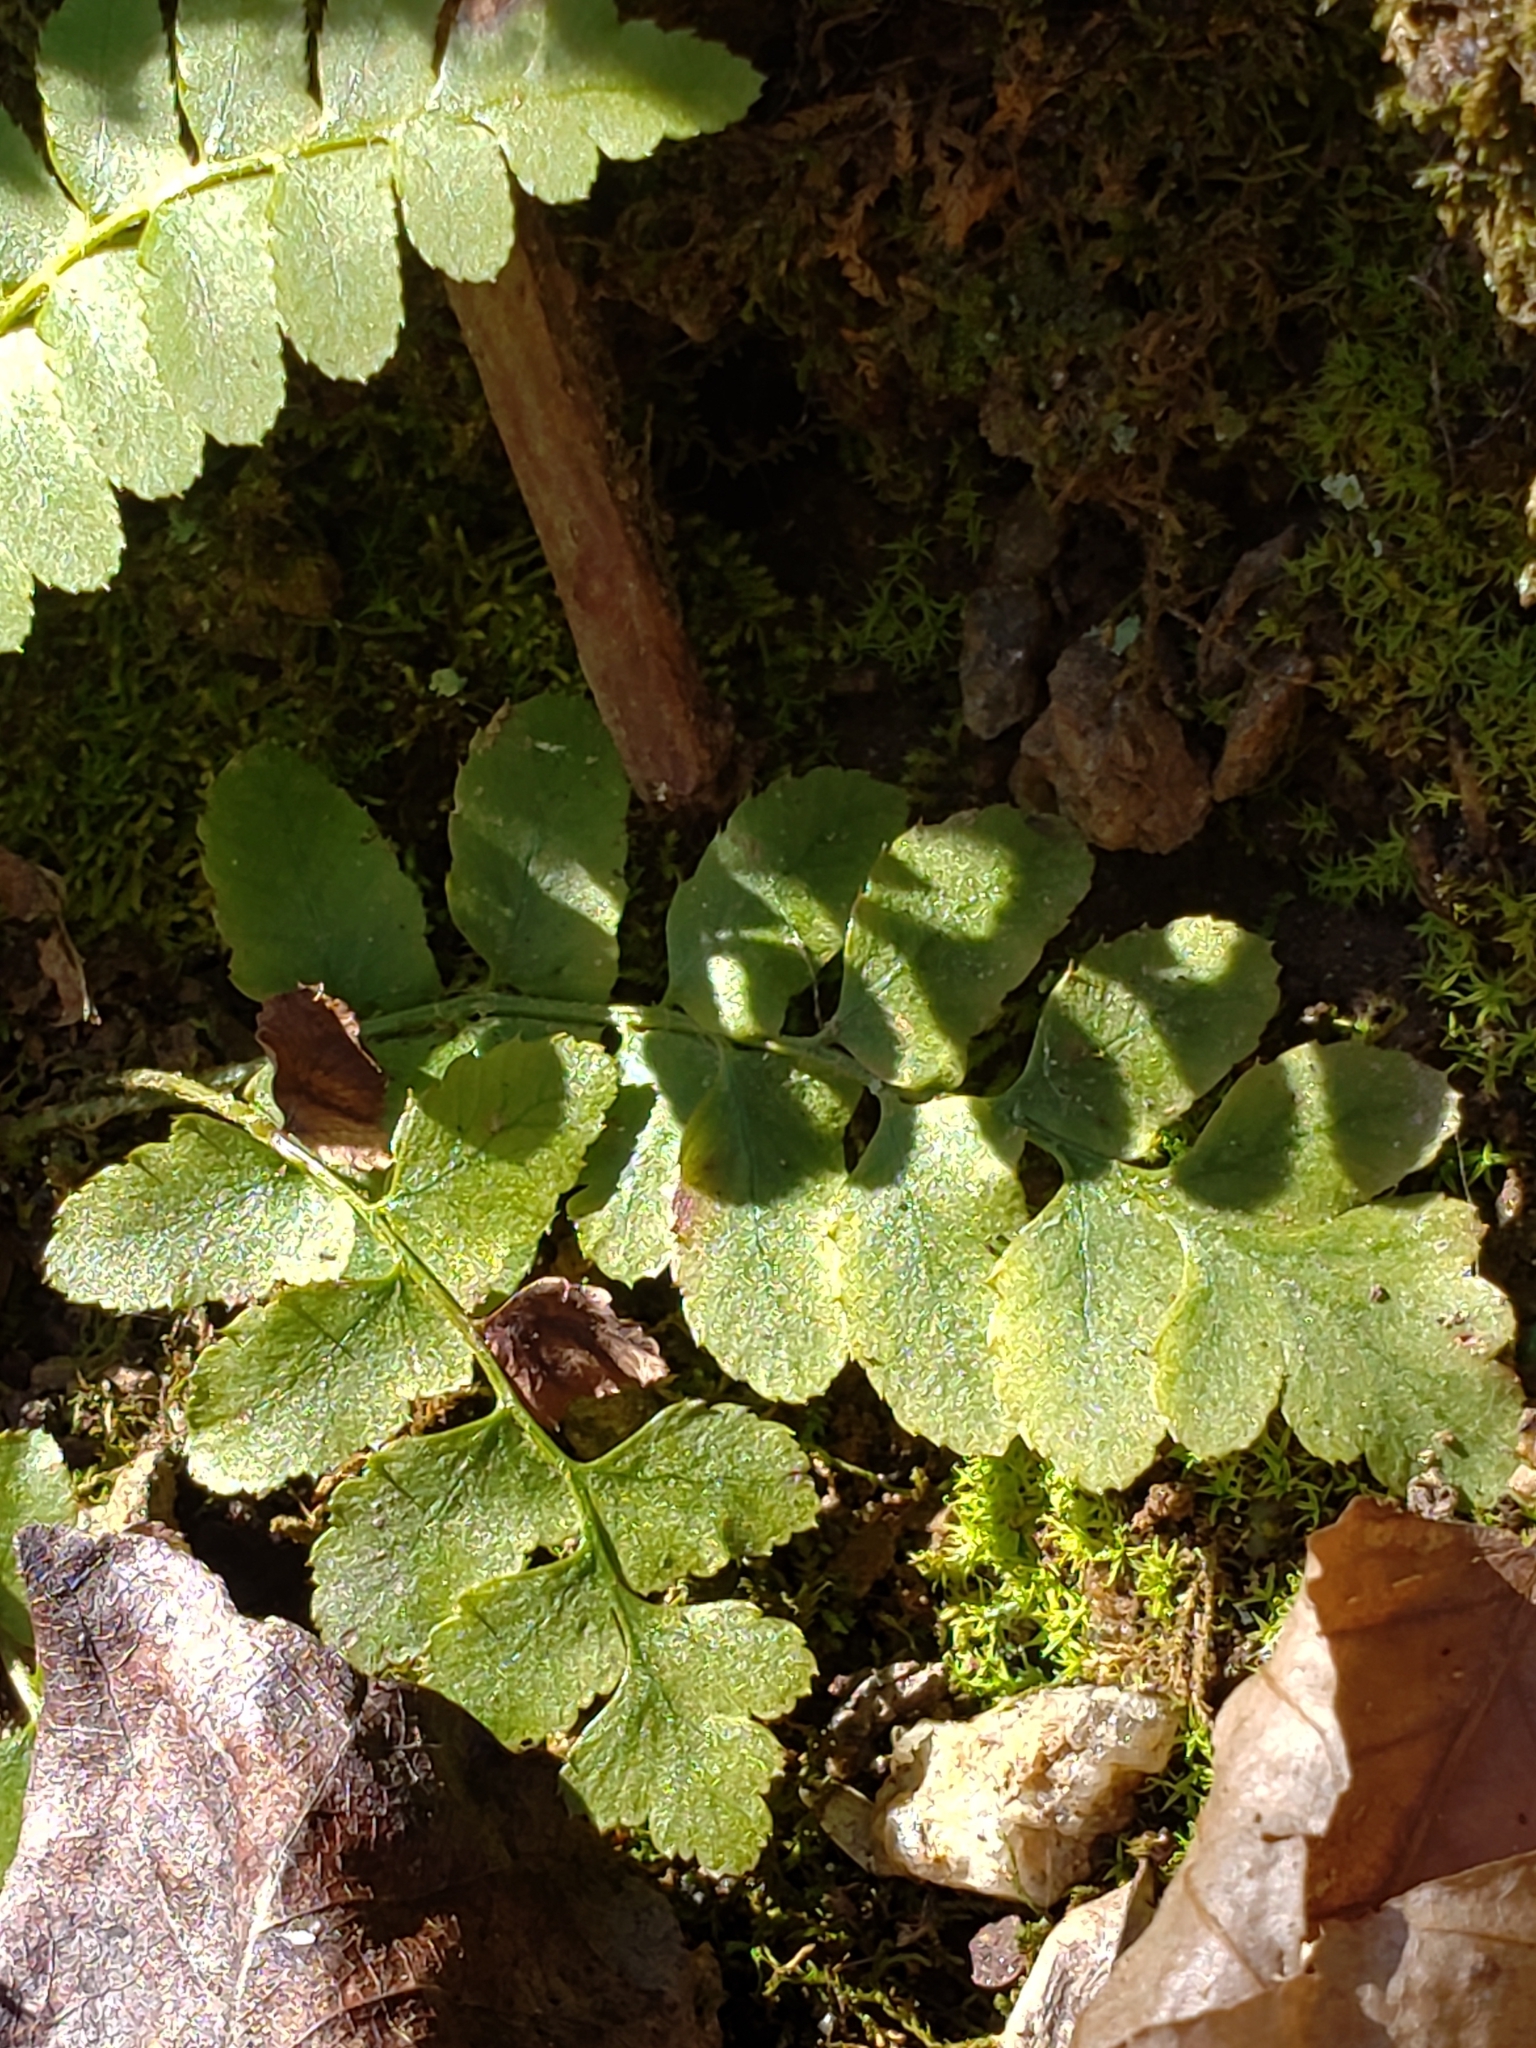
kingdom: Plantae
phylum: Tracheophyta
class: Polypodiopsida
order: Polypodiales
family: Dryopteridaceae
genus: Polystichum
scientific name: Polystichum acrostichoides
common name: Christmas fern
